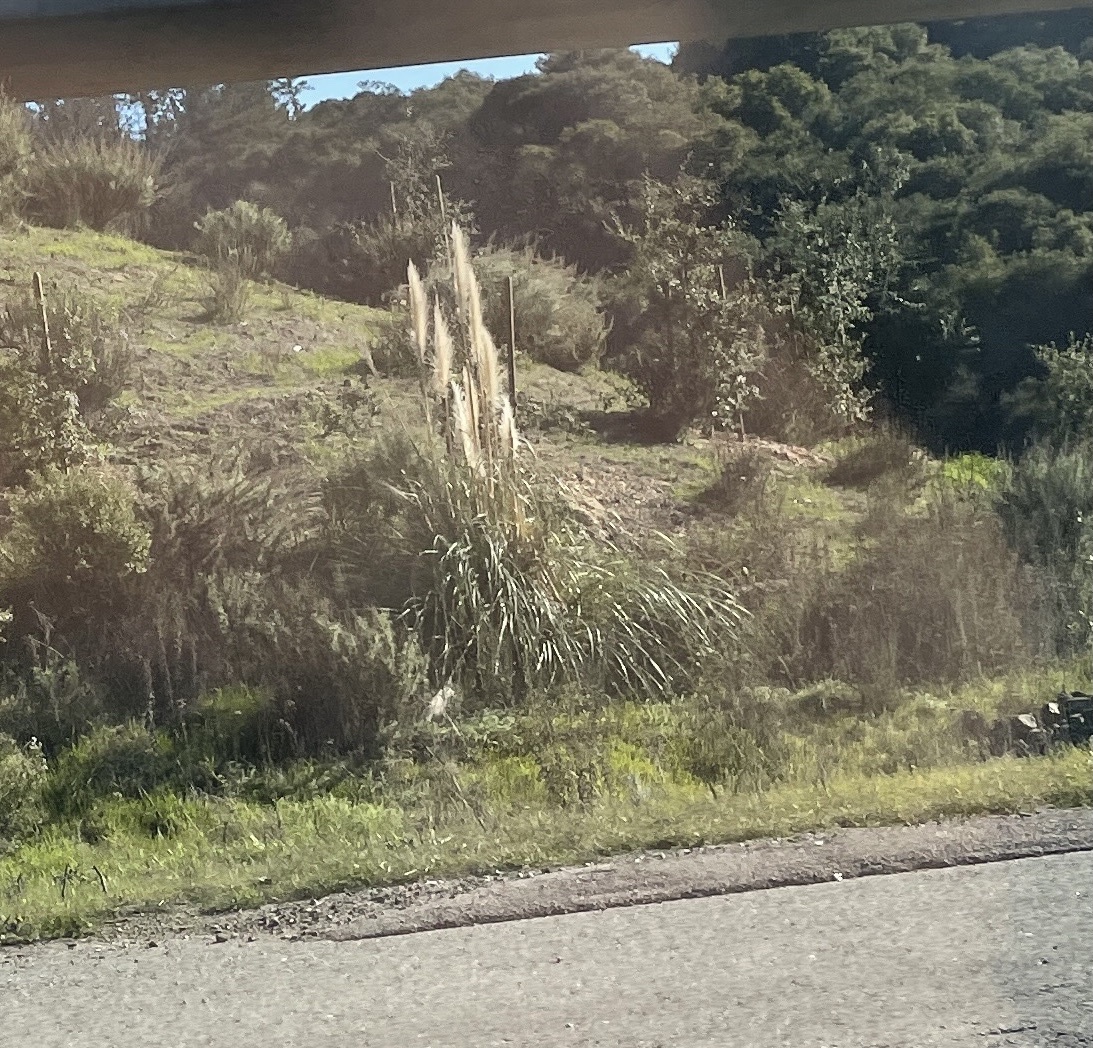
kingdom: Plantae
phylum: Tracheophyta
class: Liliopsida
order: Poales
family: Poaceae
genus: Cortaderia
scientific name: Cortaderia selloana
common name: Uruguayan pampas grass
